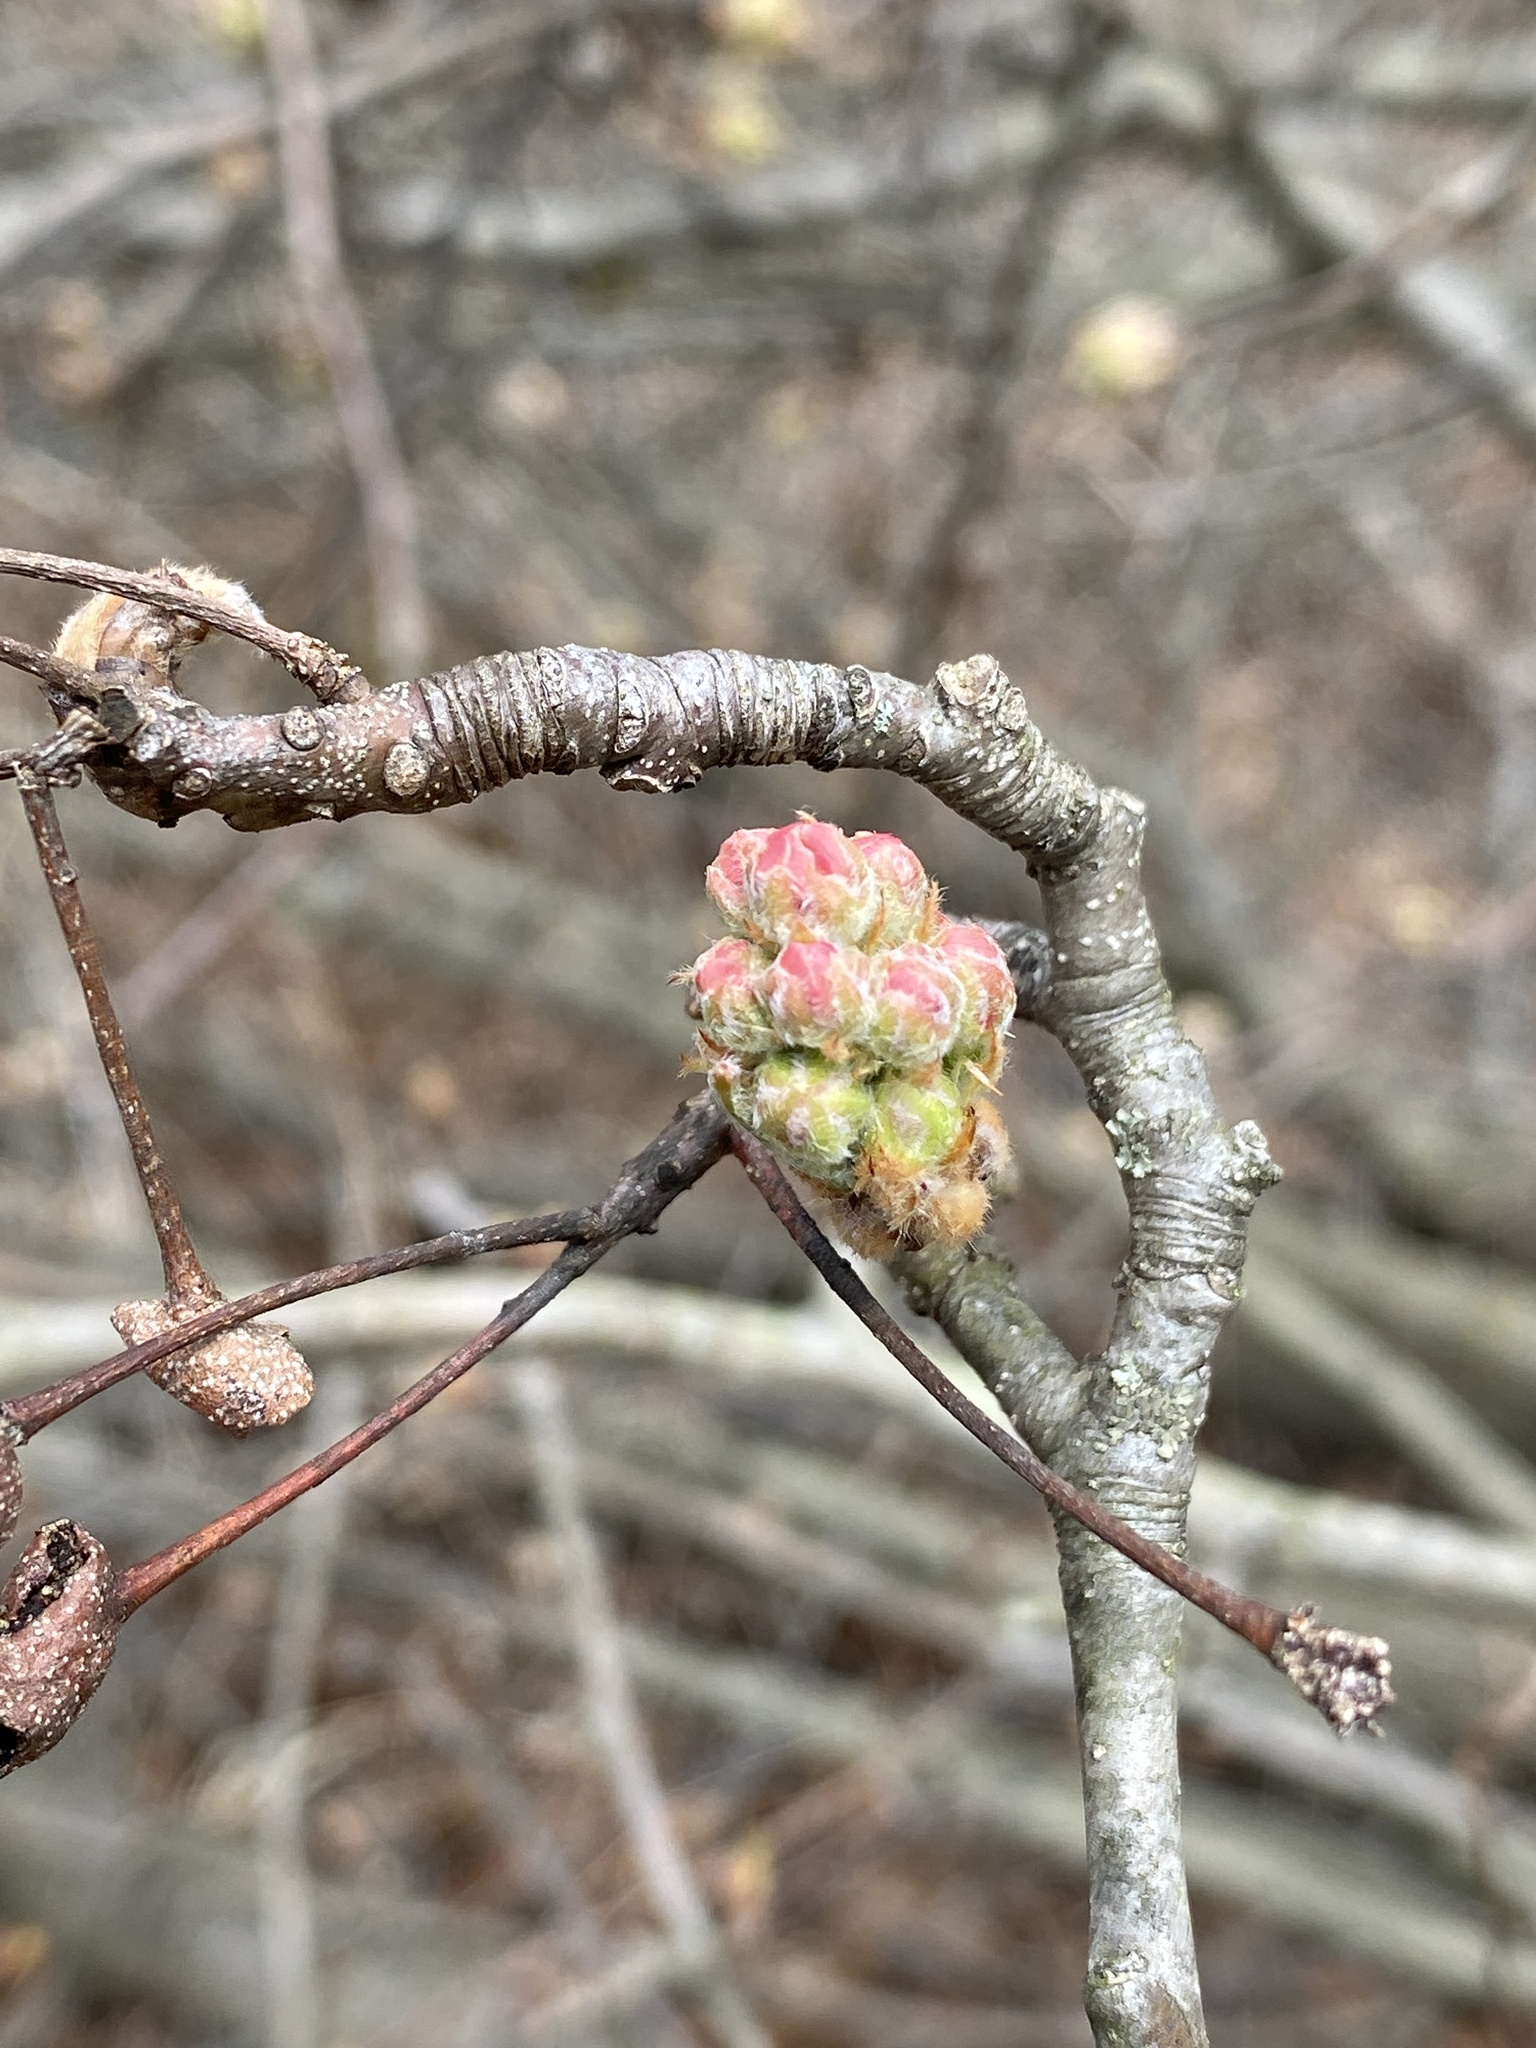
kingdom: Plantae
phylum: Tracheophyta
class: Magnoliopsida
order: Rosales
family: Rosaceae
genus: Pyrus
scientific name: Pyrus calleryana
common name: Callery pear
